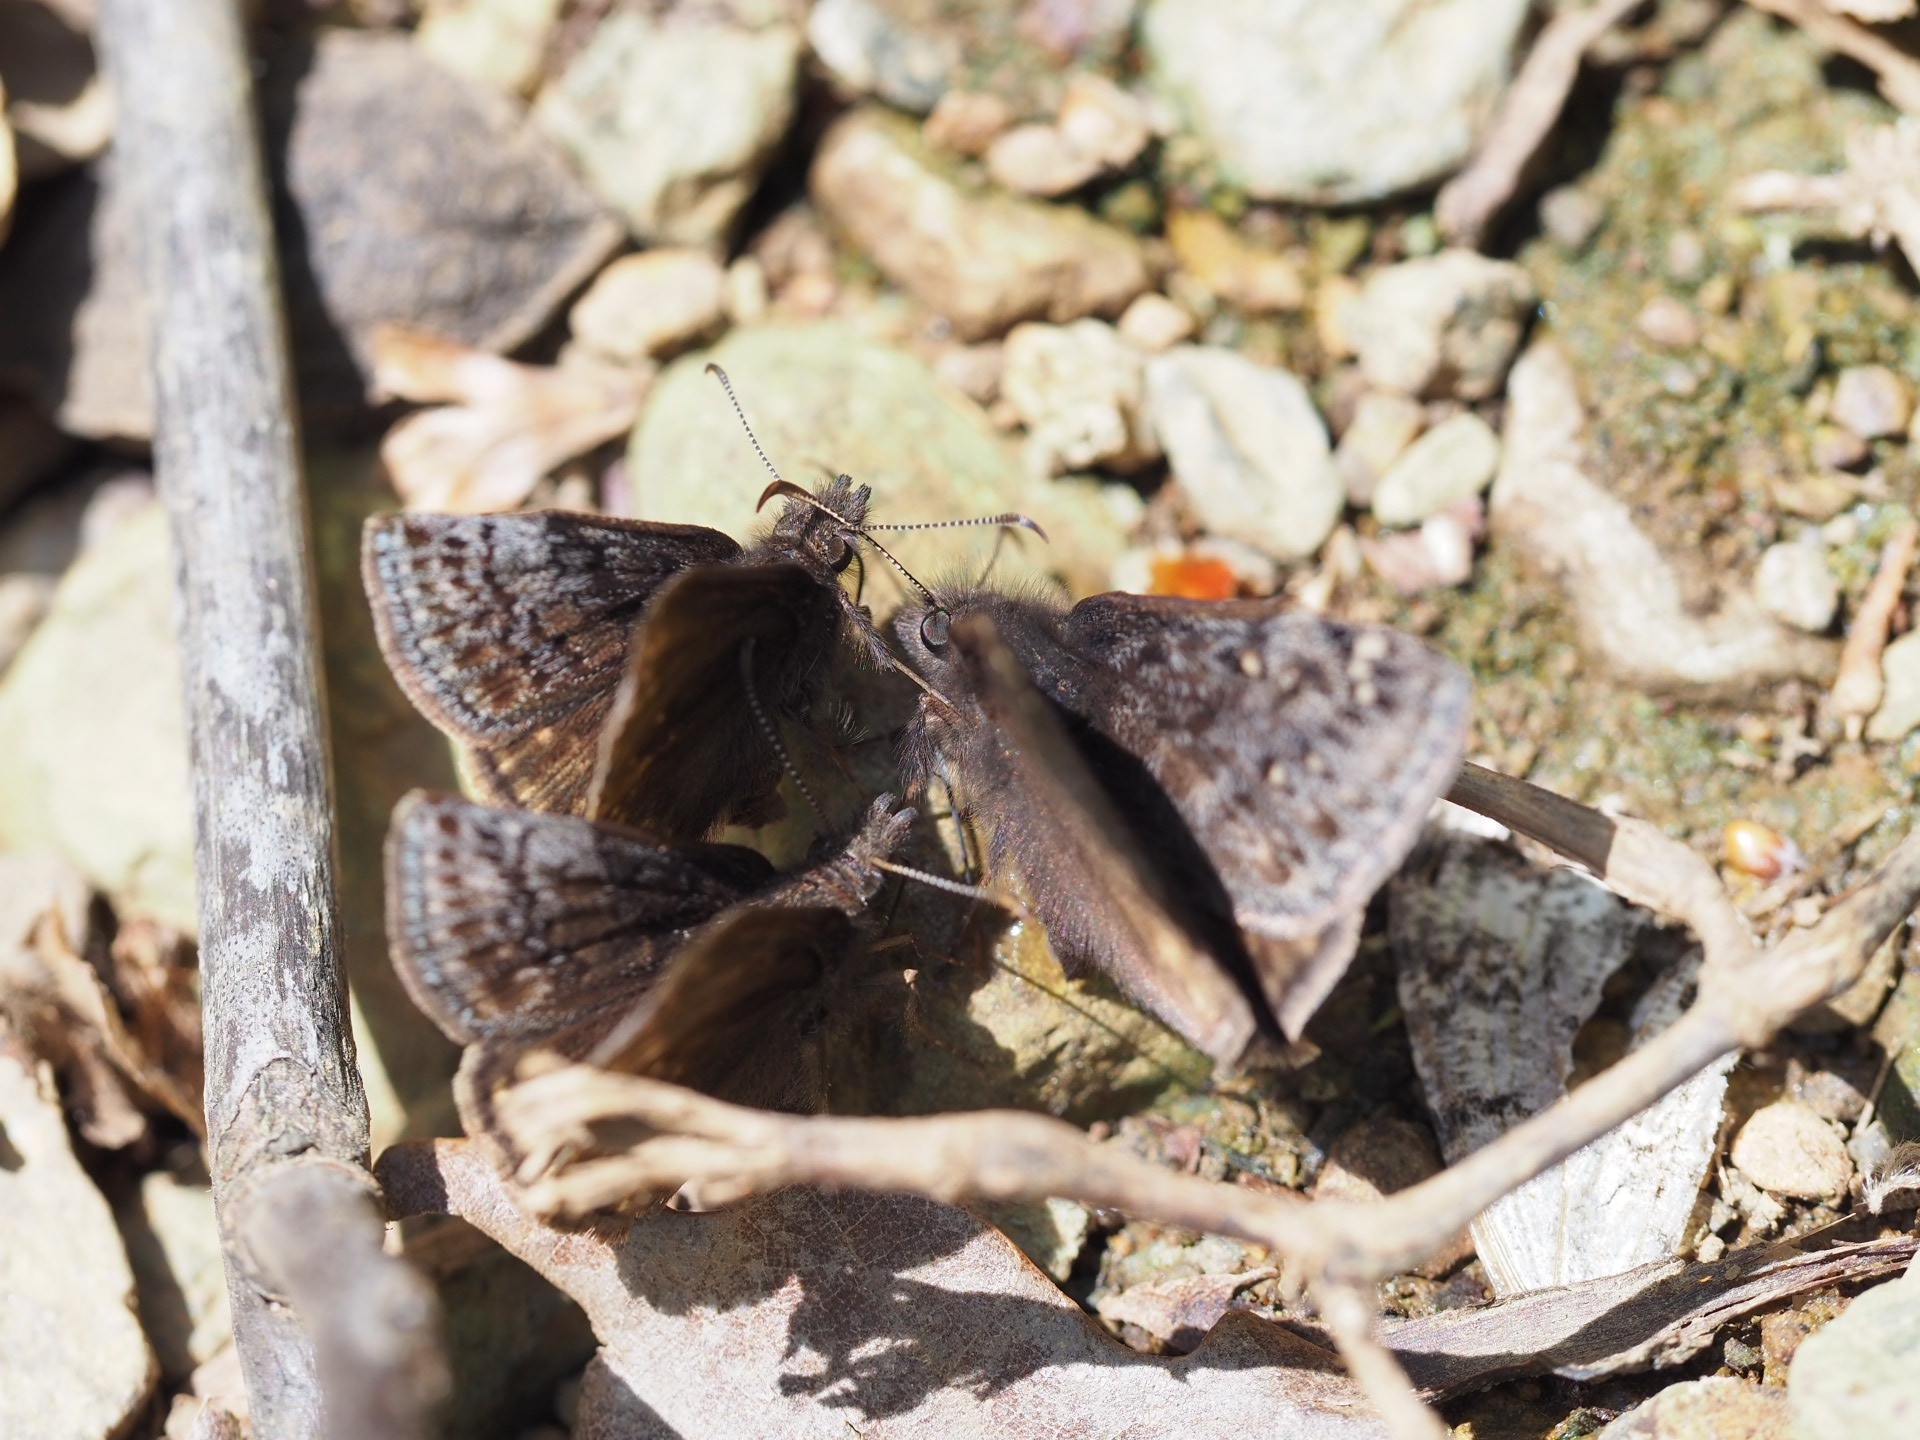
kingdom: Animalia
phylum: Arthropoda
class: Insecta
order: Lepidoptera
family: Hesperiidae
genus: Erynnis
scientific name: Erynnis icelus
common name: Dreamy duskywing
